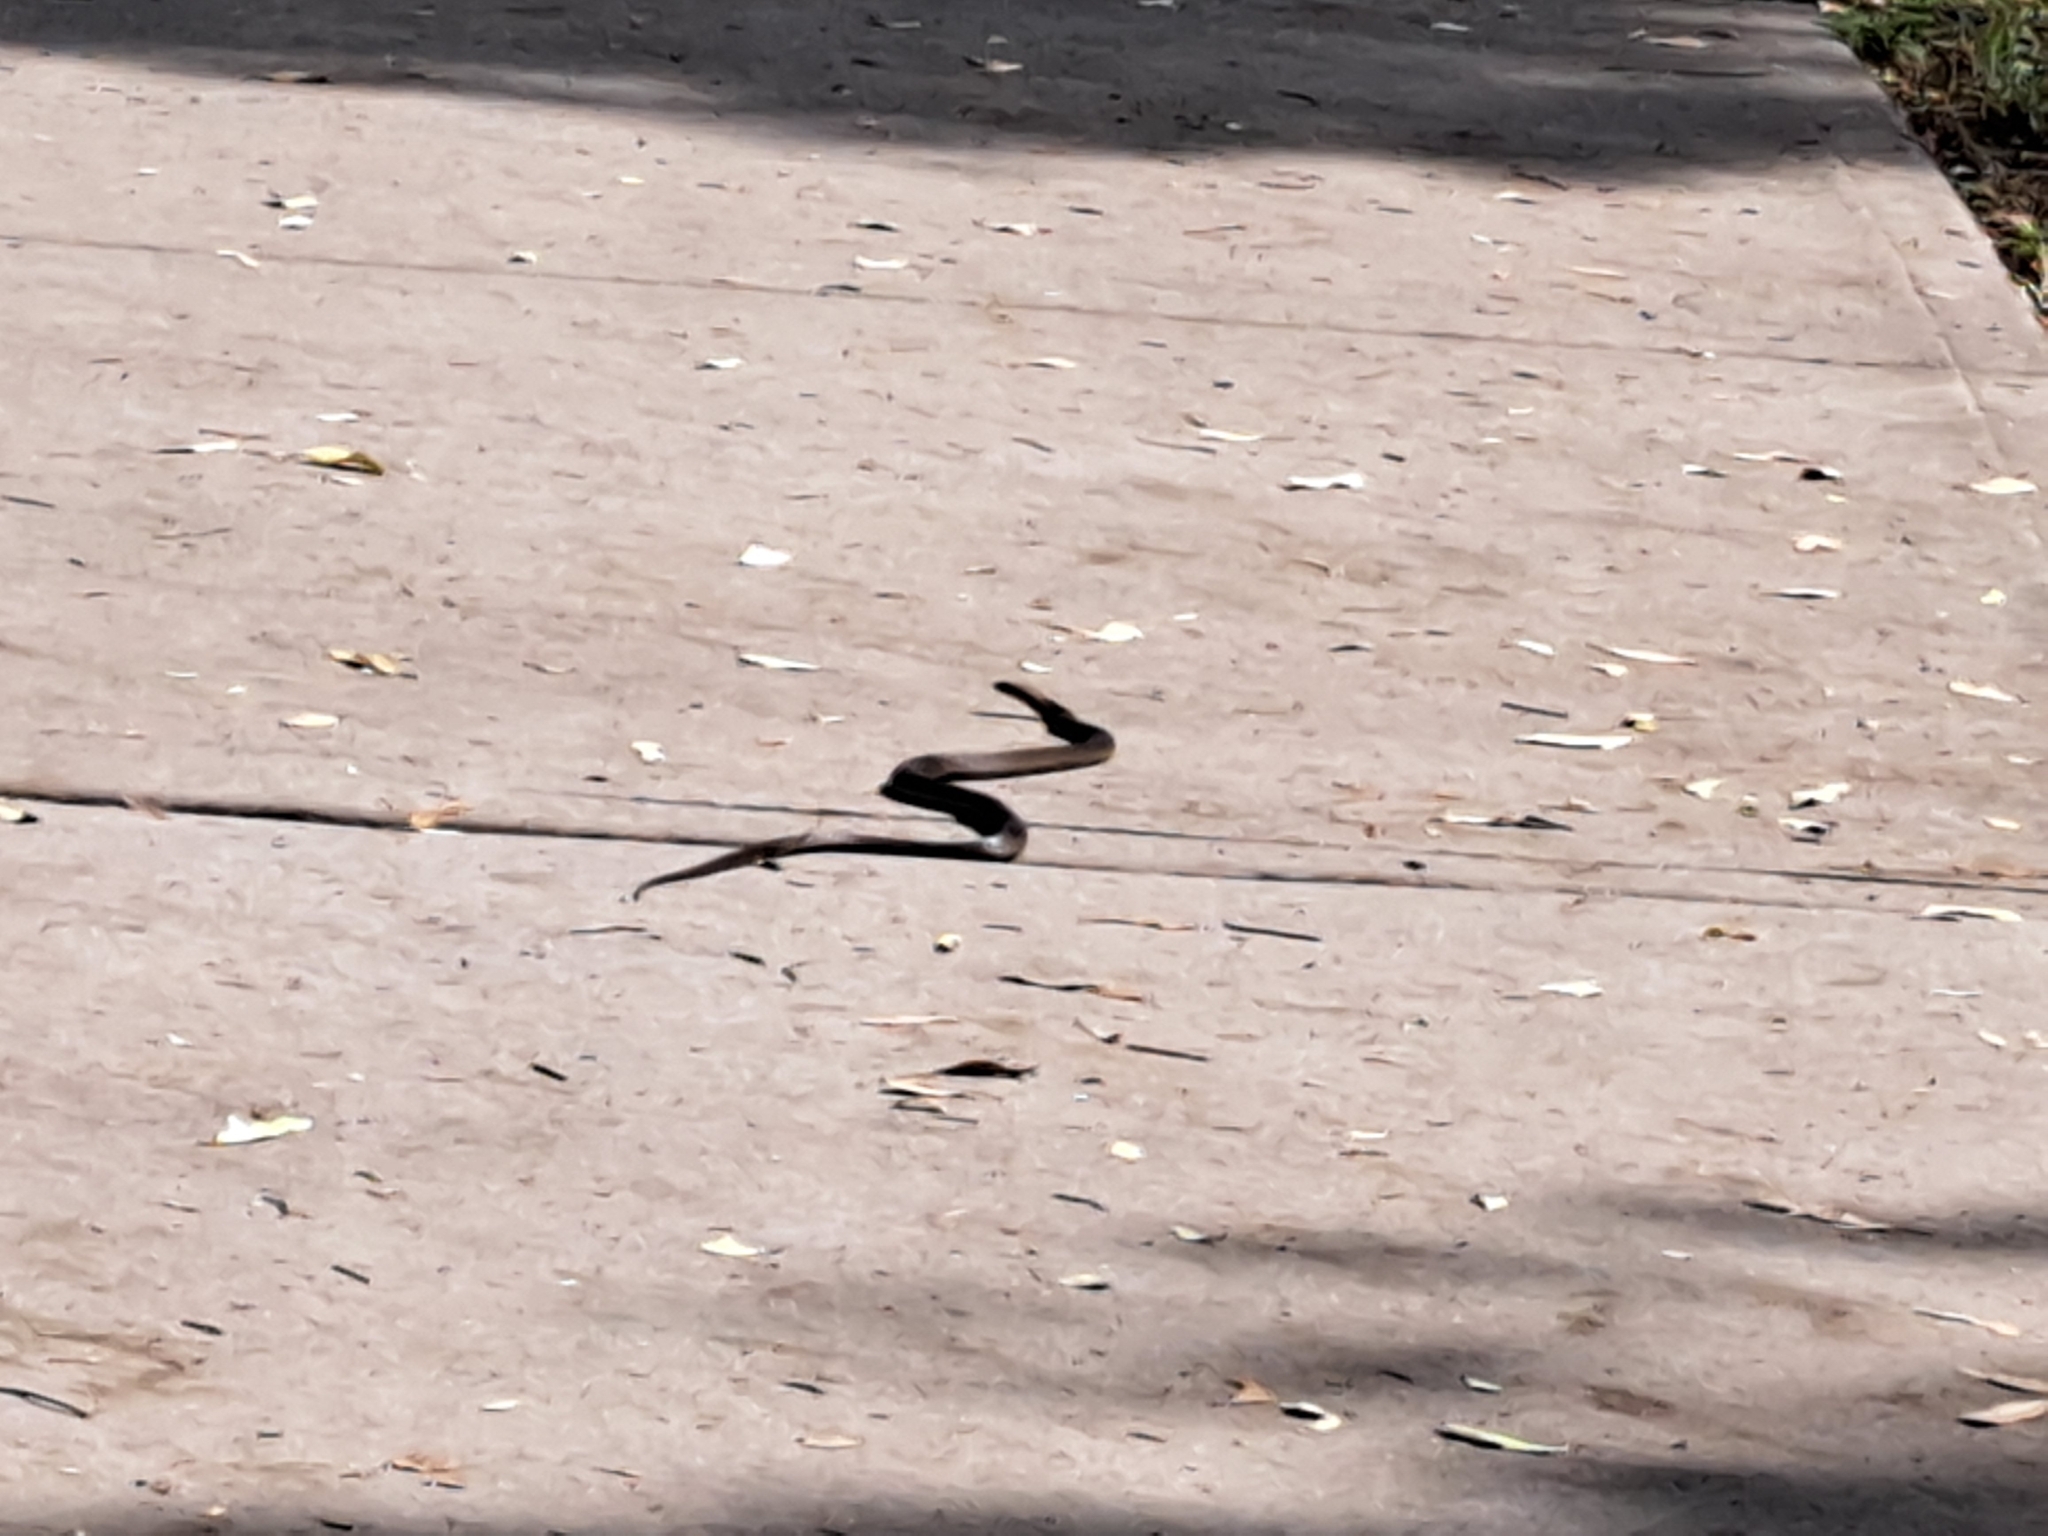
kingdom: Animalia
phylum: Chordata
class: Squamata
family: Elapidae
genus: Pseudonaja
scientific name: Pseudonaja textilis
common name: Eastern brown snake
